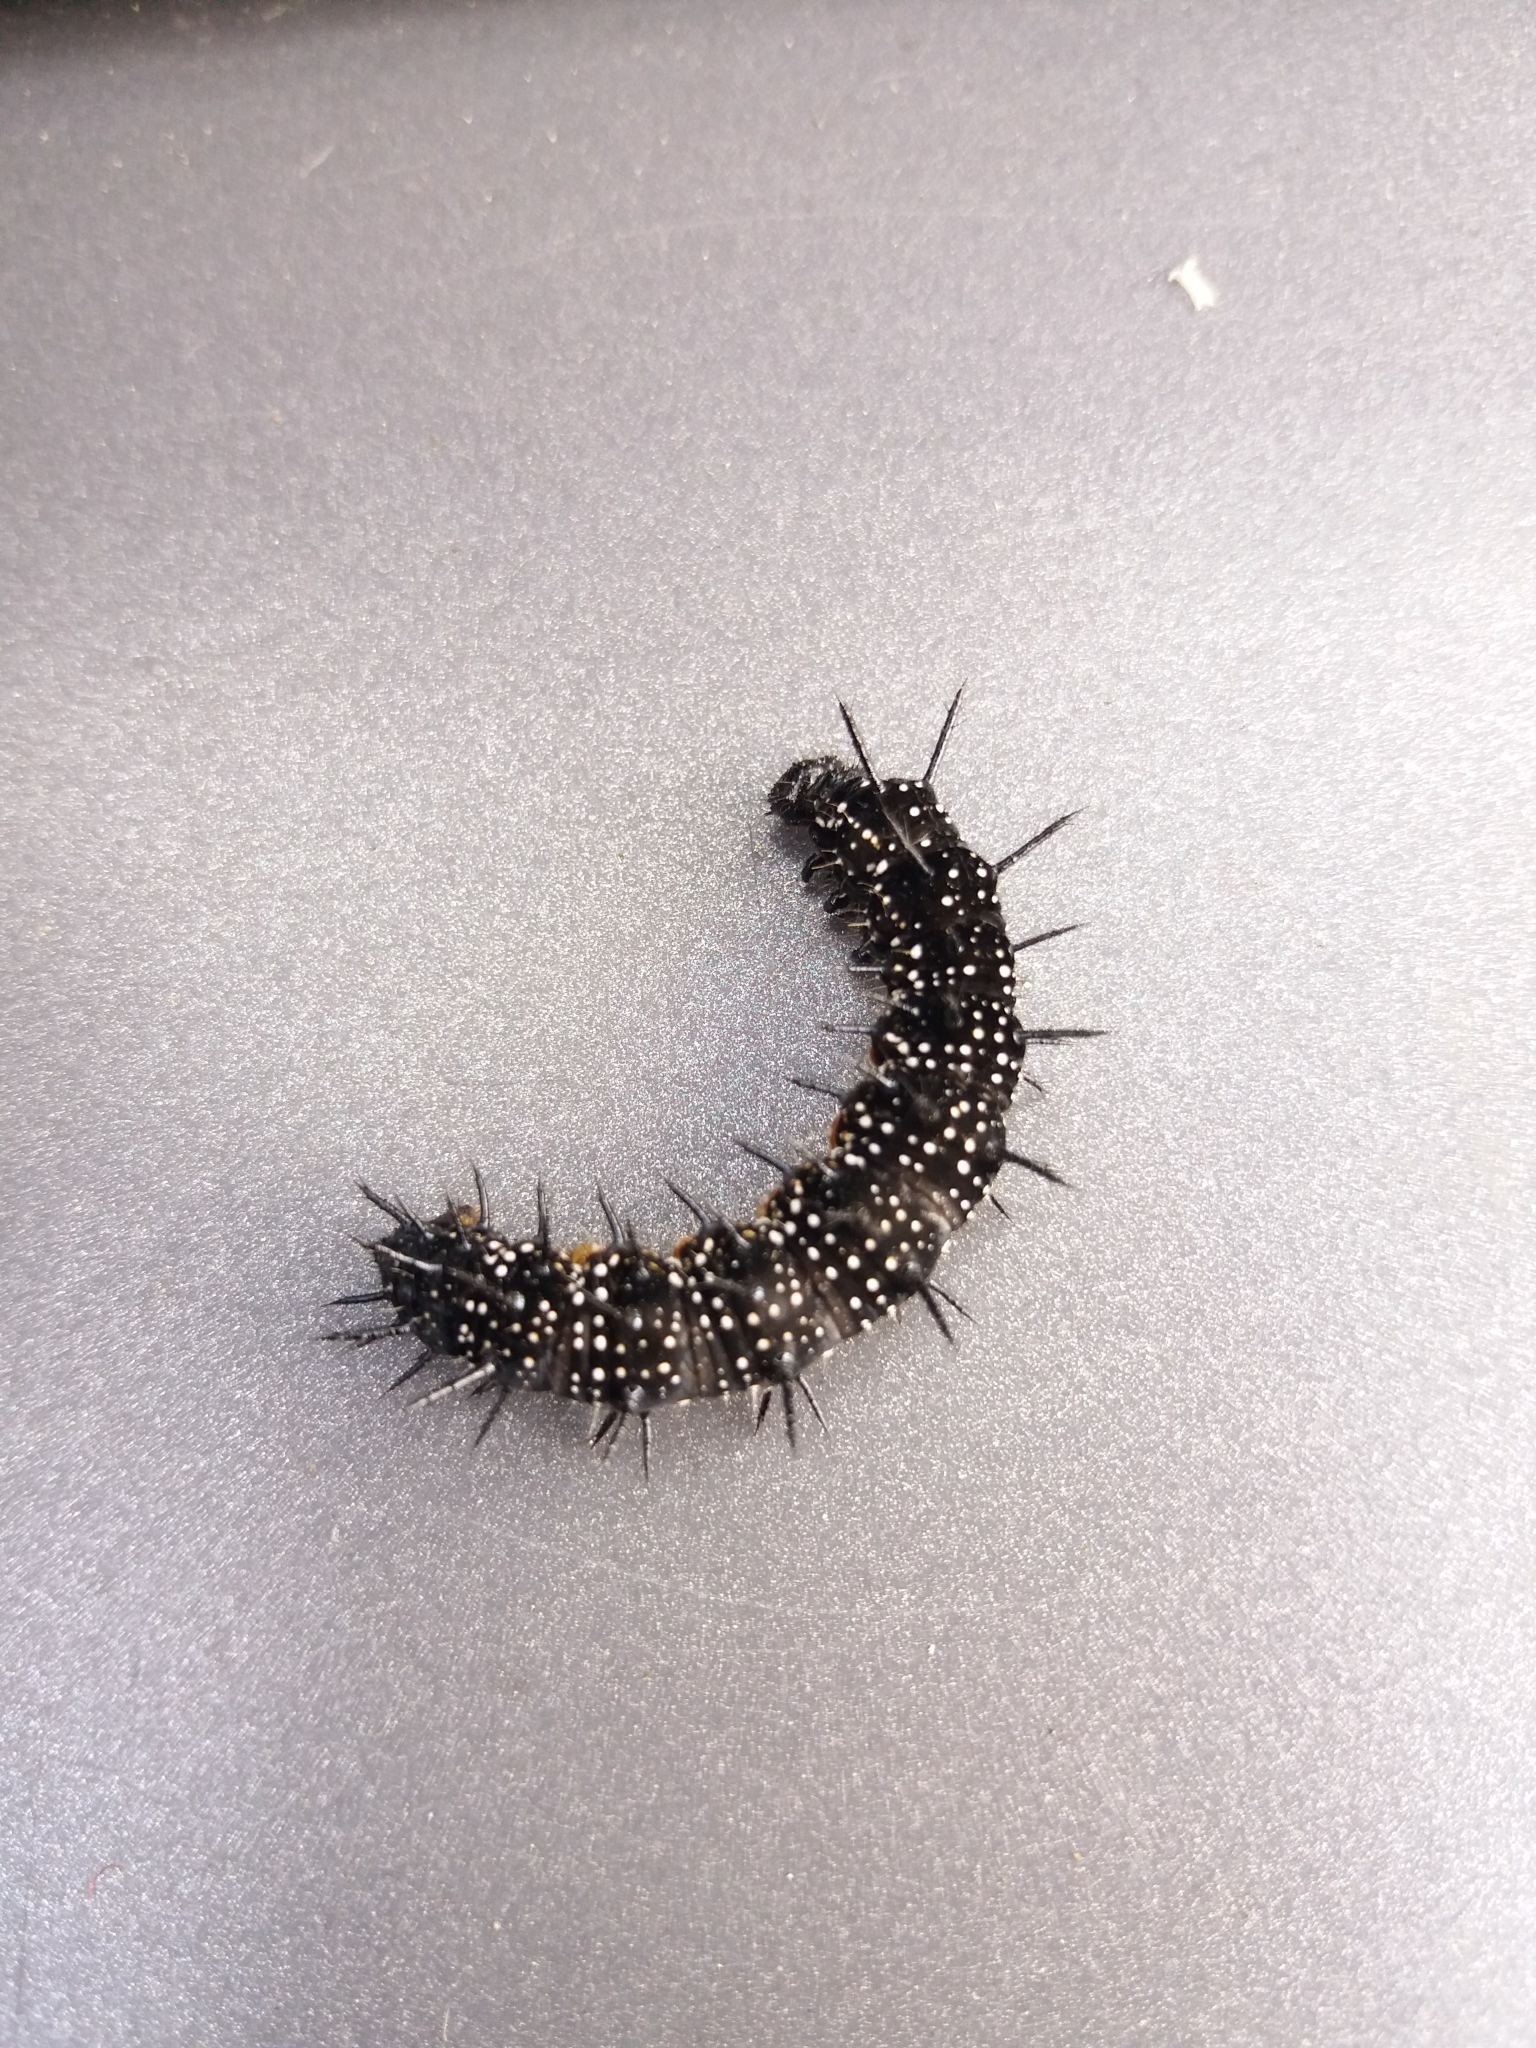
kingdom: Animalia
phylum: Arthropoda
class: Insecta
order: Lepidoptera
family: Nymphalidae
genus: Aglais
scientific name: Aglais io
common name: Peacock
